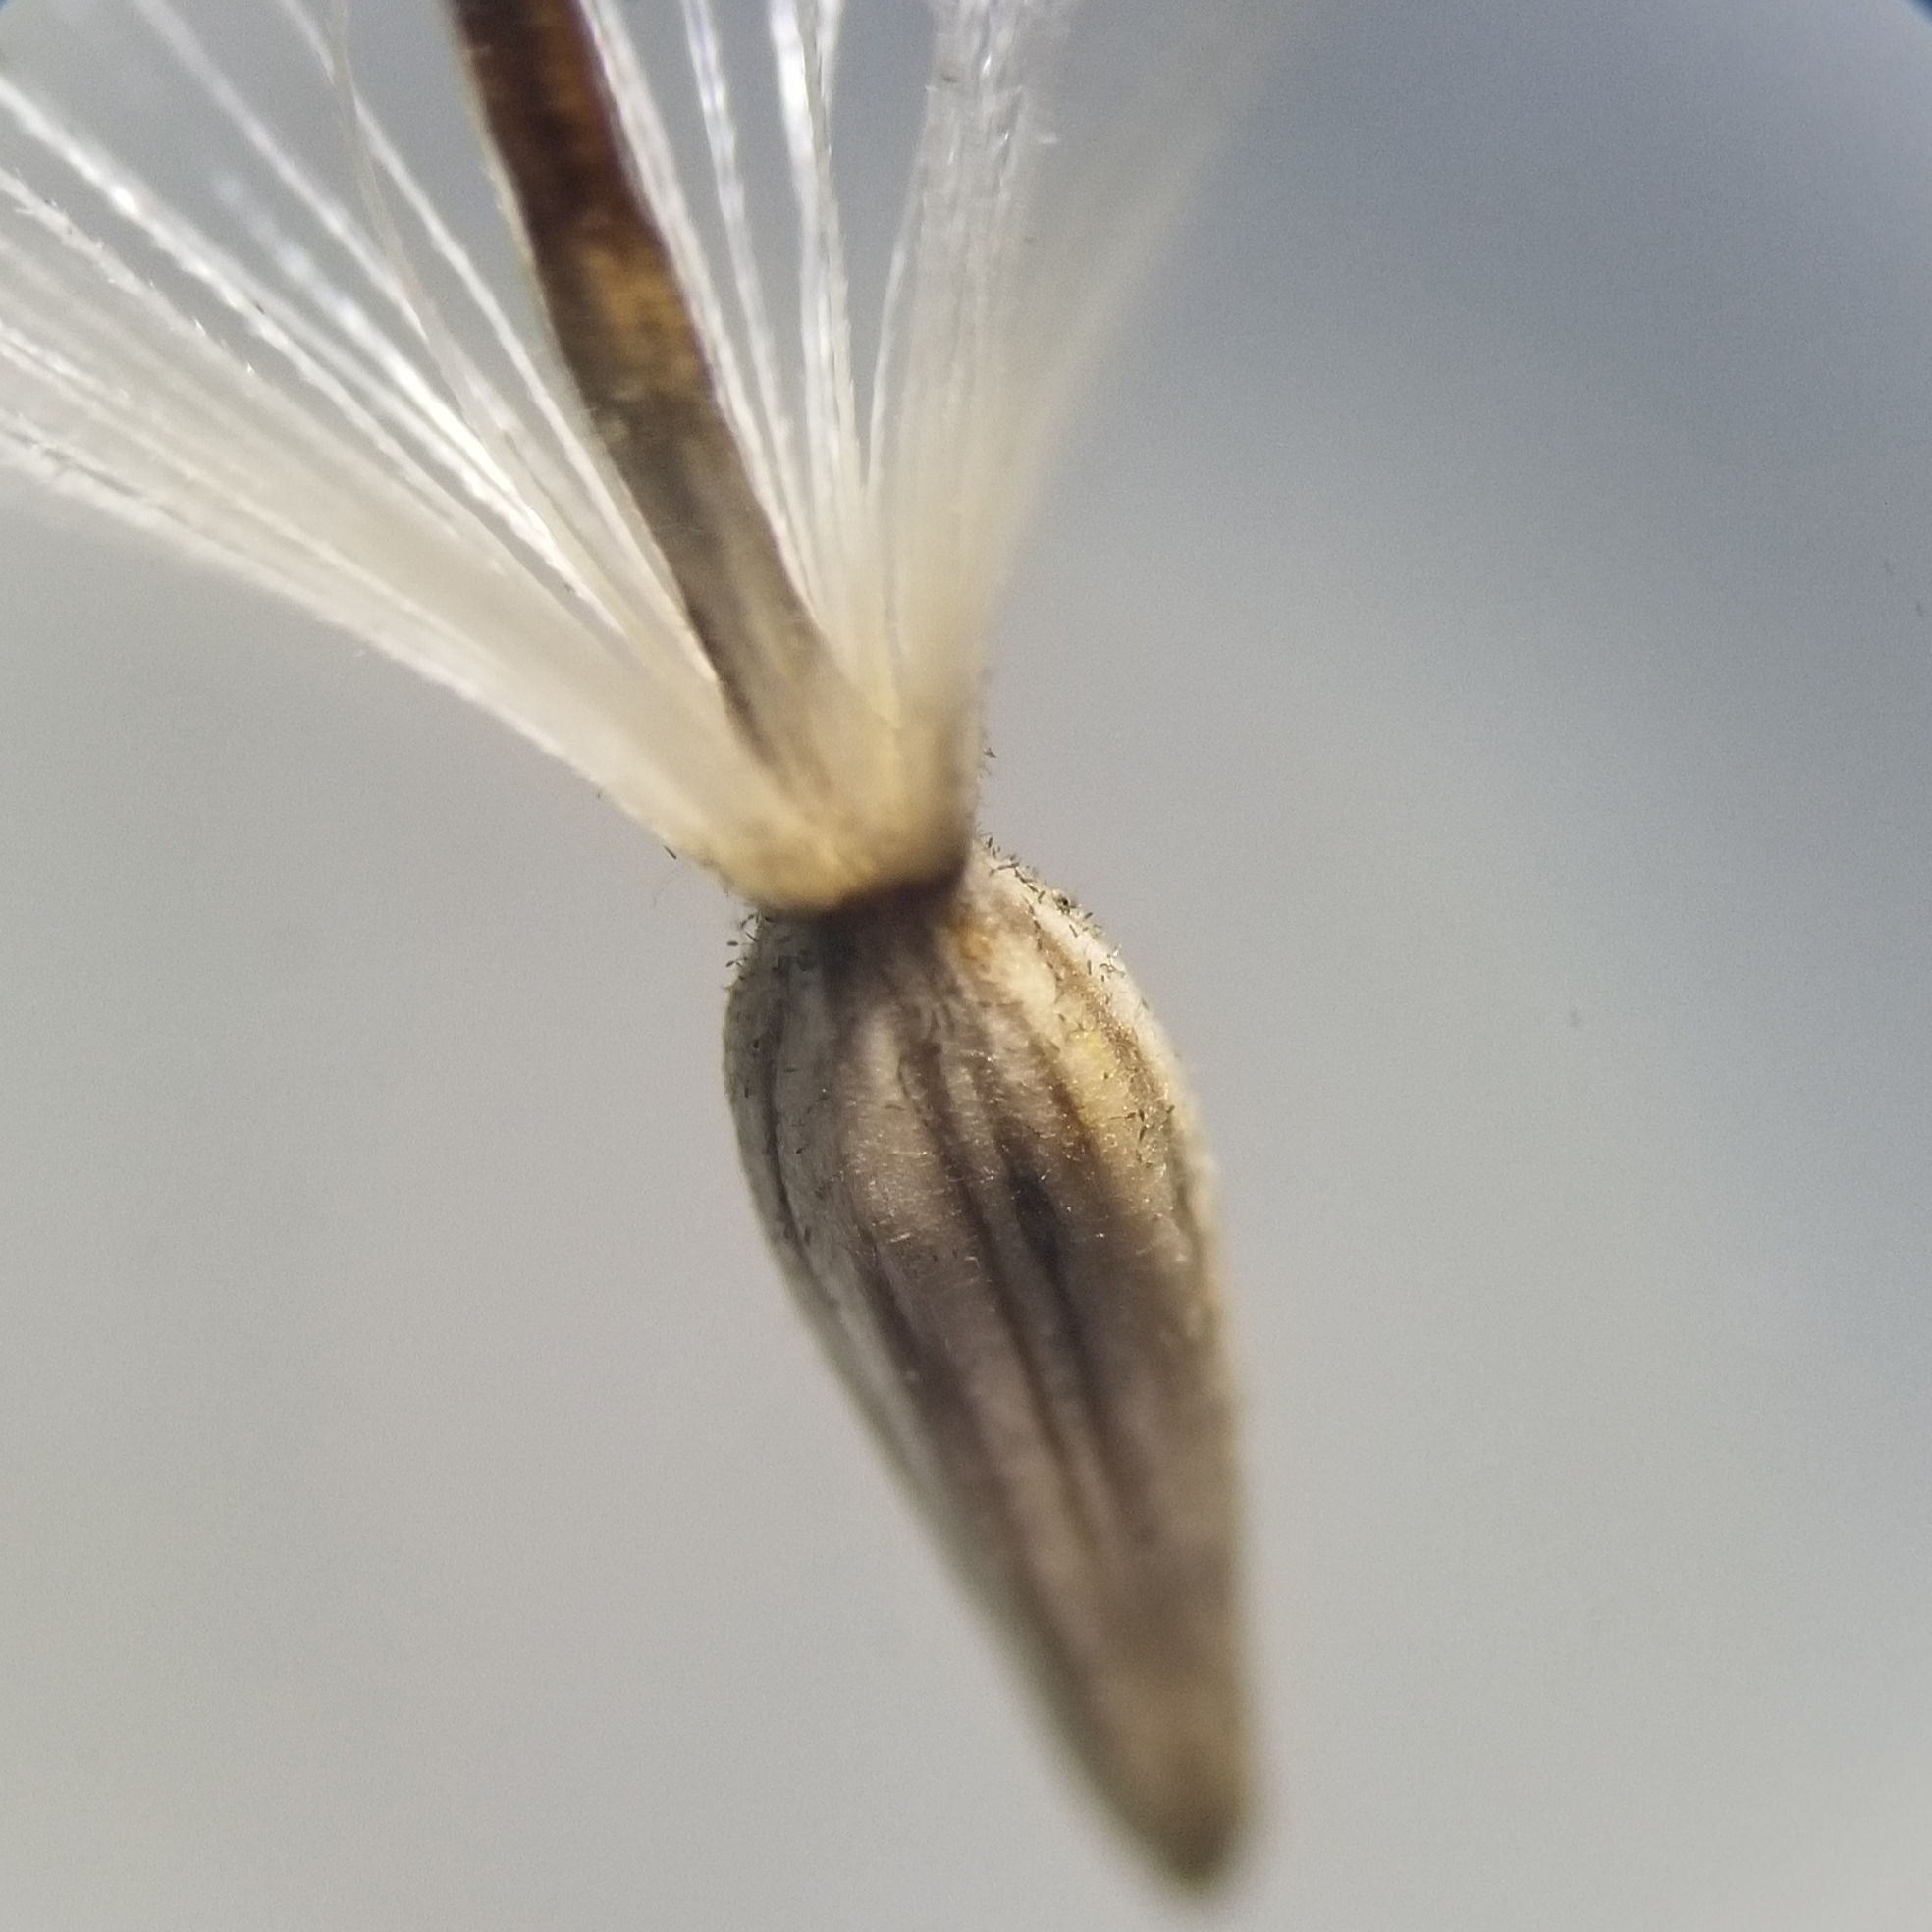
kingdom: Plantae
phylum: Tracheophyta
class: Magnoliopsida
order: Asterales
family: Asteraceae
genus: Solidago
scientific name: Solidago rigida
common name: Rigid goldenrod
